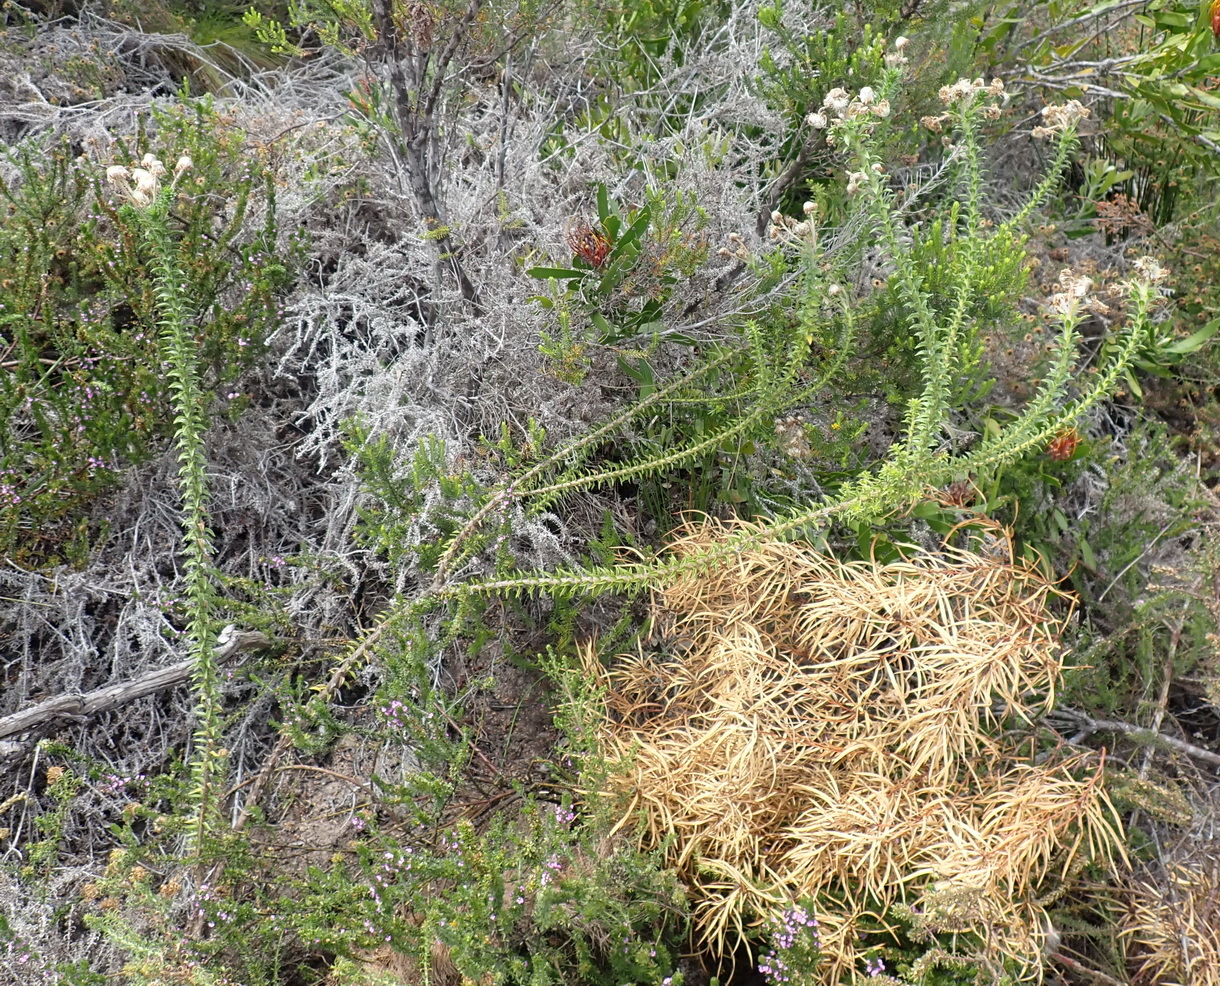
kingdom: Plantae
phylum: Tracheophyta
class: Magnoliopsida
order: Asterales
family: Asteraceae
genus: Felicia
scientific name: Felicia echinata
